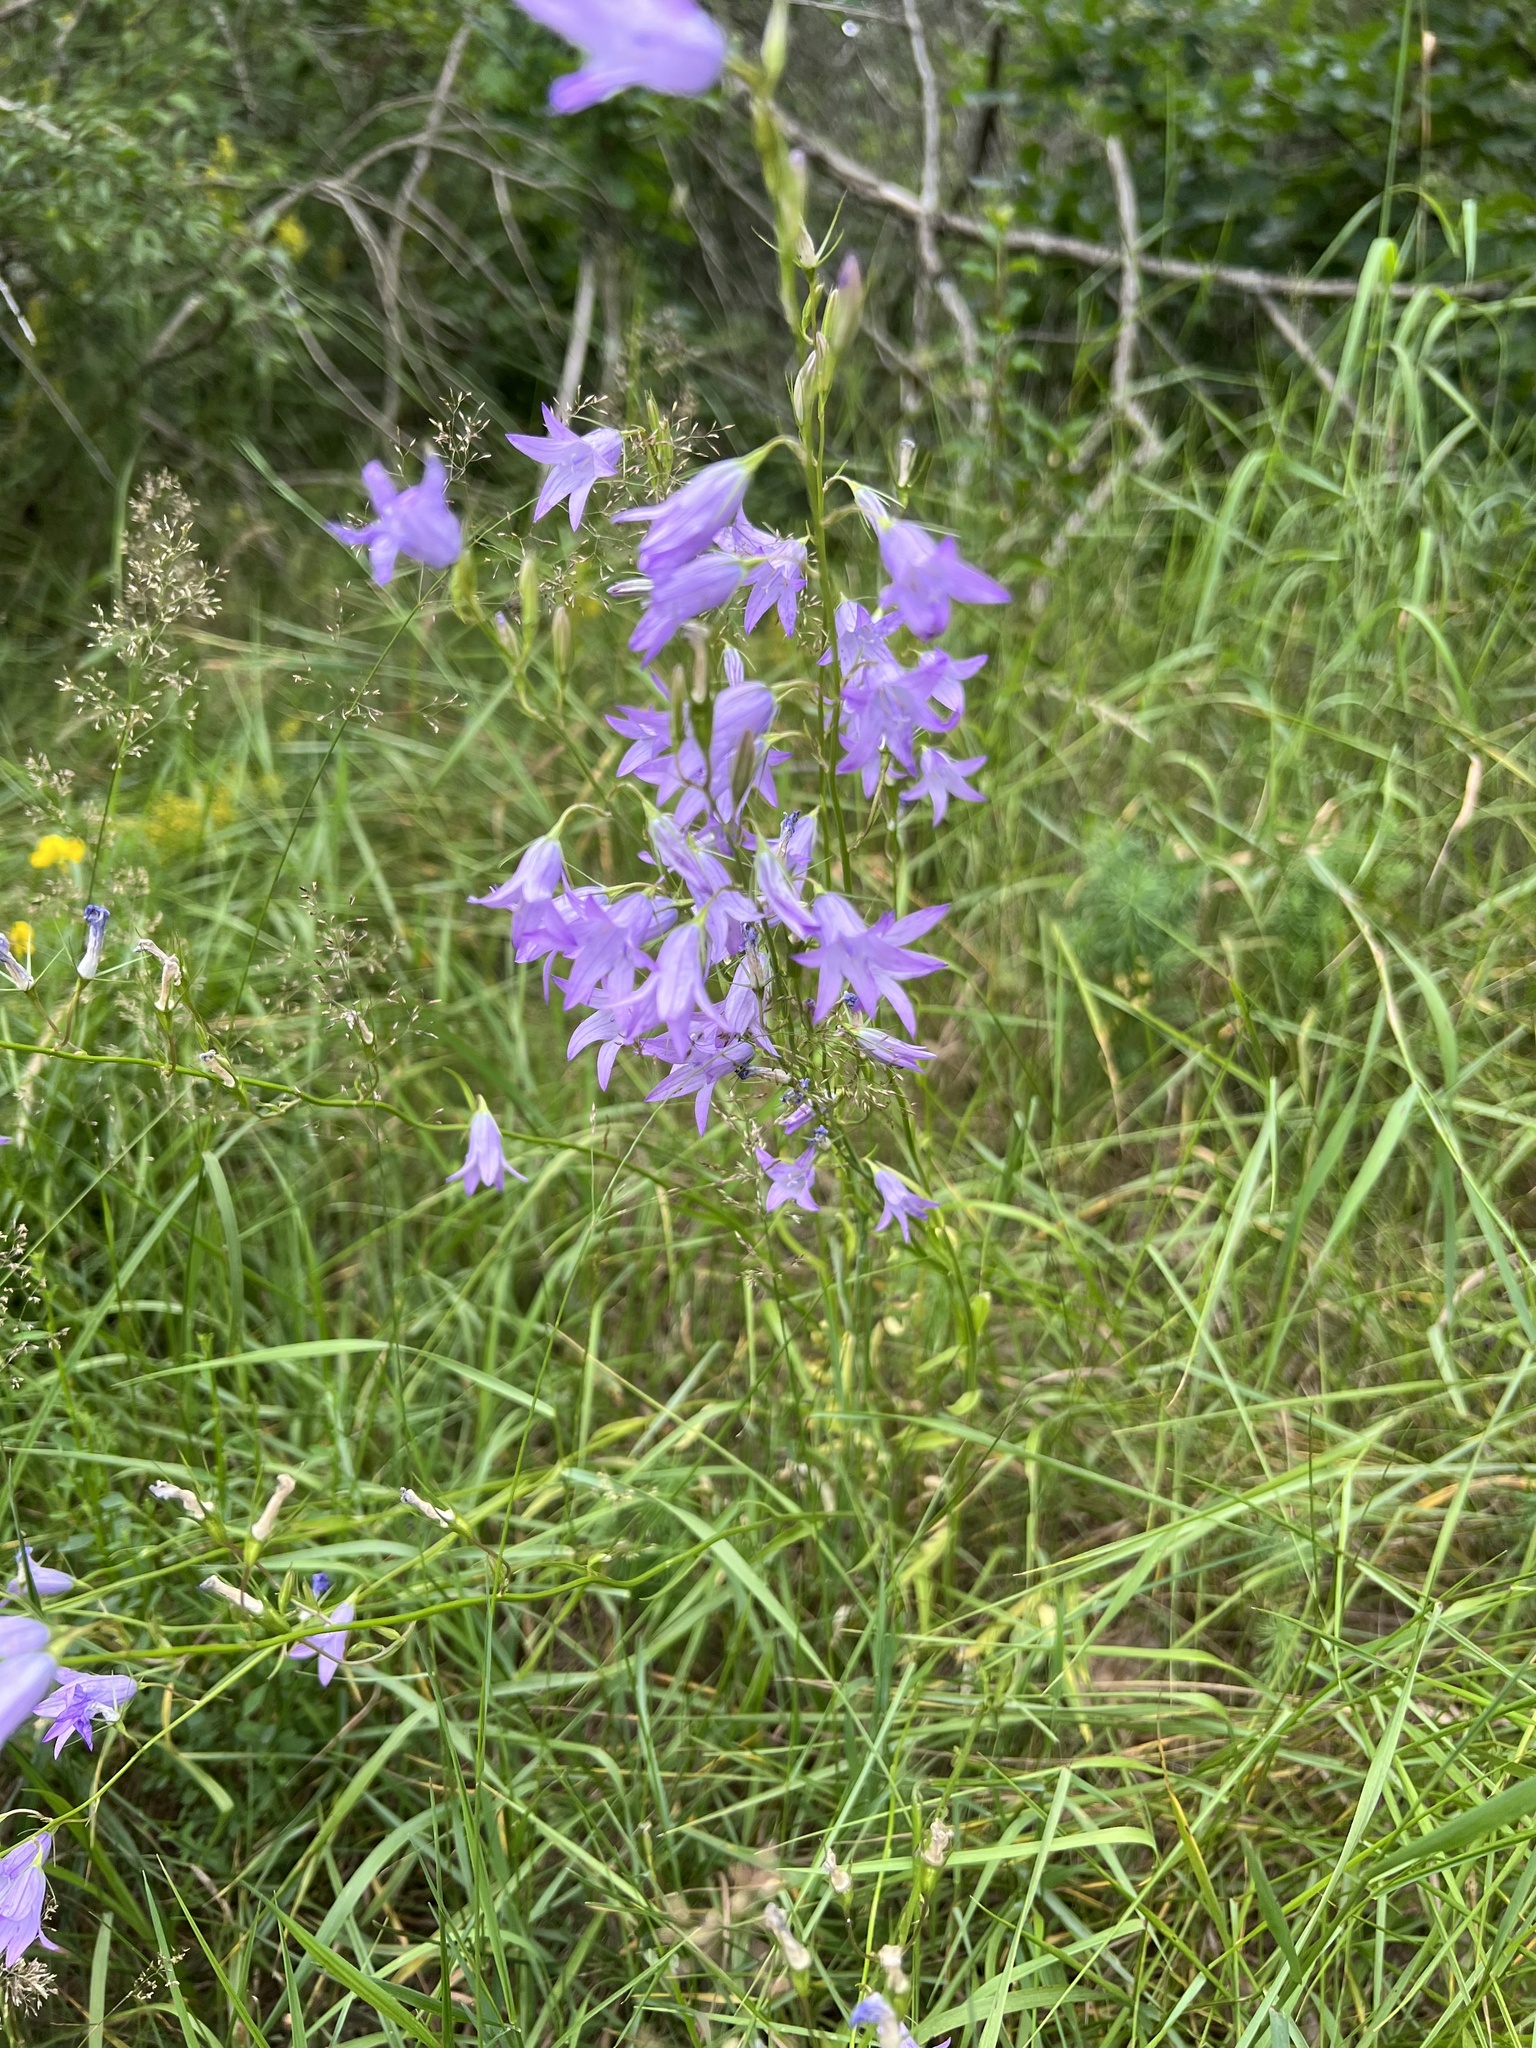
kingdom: Plantae
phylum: Tracheophyta
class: Magnoliopsida
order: Asterales
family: Campanulaceae
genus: Campanula
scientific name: Campanula rapunculus
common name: Rampion bellflower
